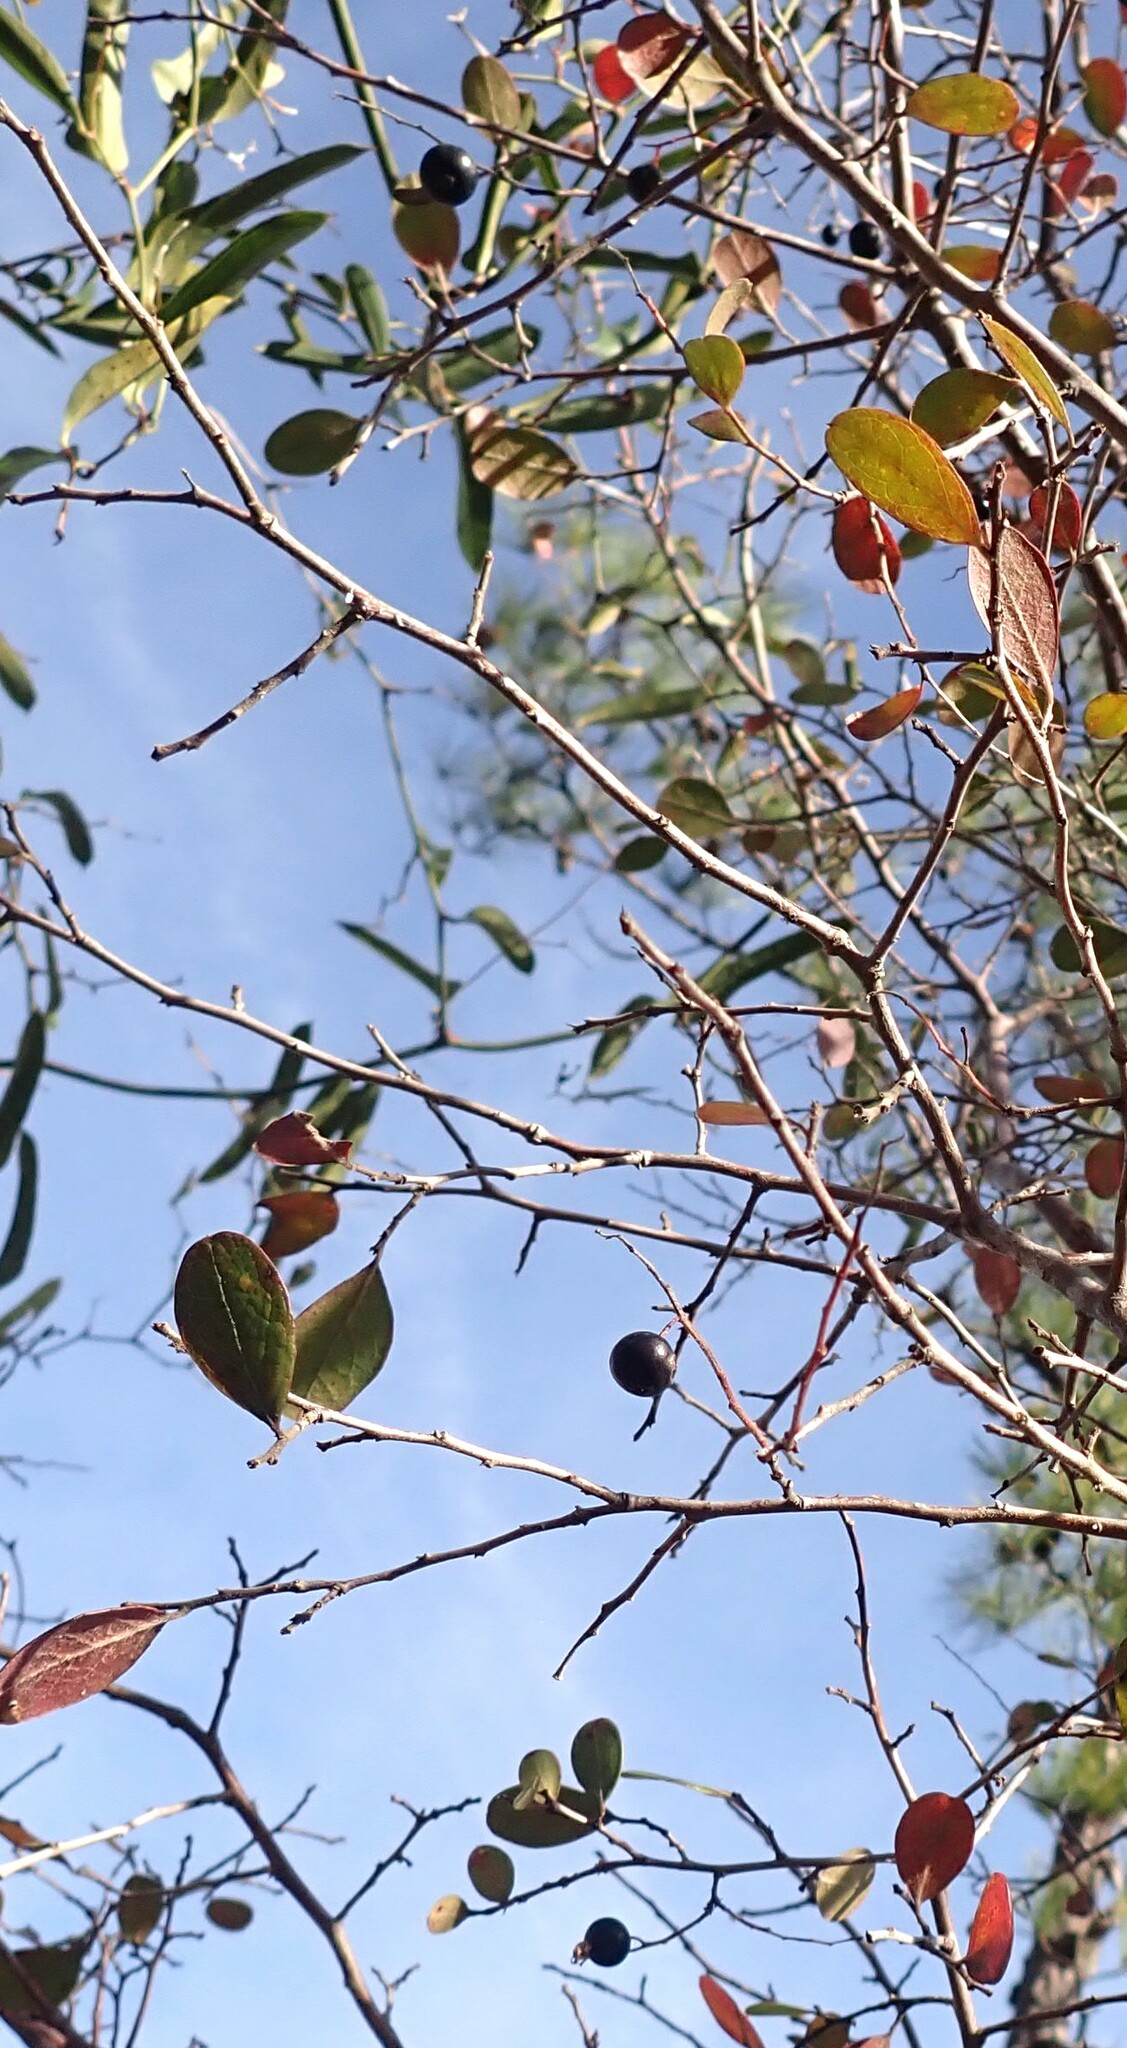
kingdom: Plantae
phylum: Tracheophyta
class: Magnoliopsida
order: Ericales
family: Ericaceae
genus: Vaccinium
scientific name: Vaccinium arboreum
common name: Farkleberry
